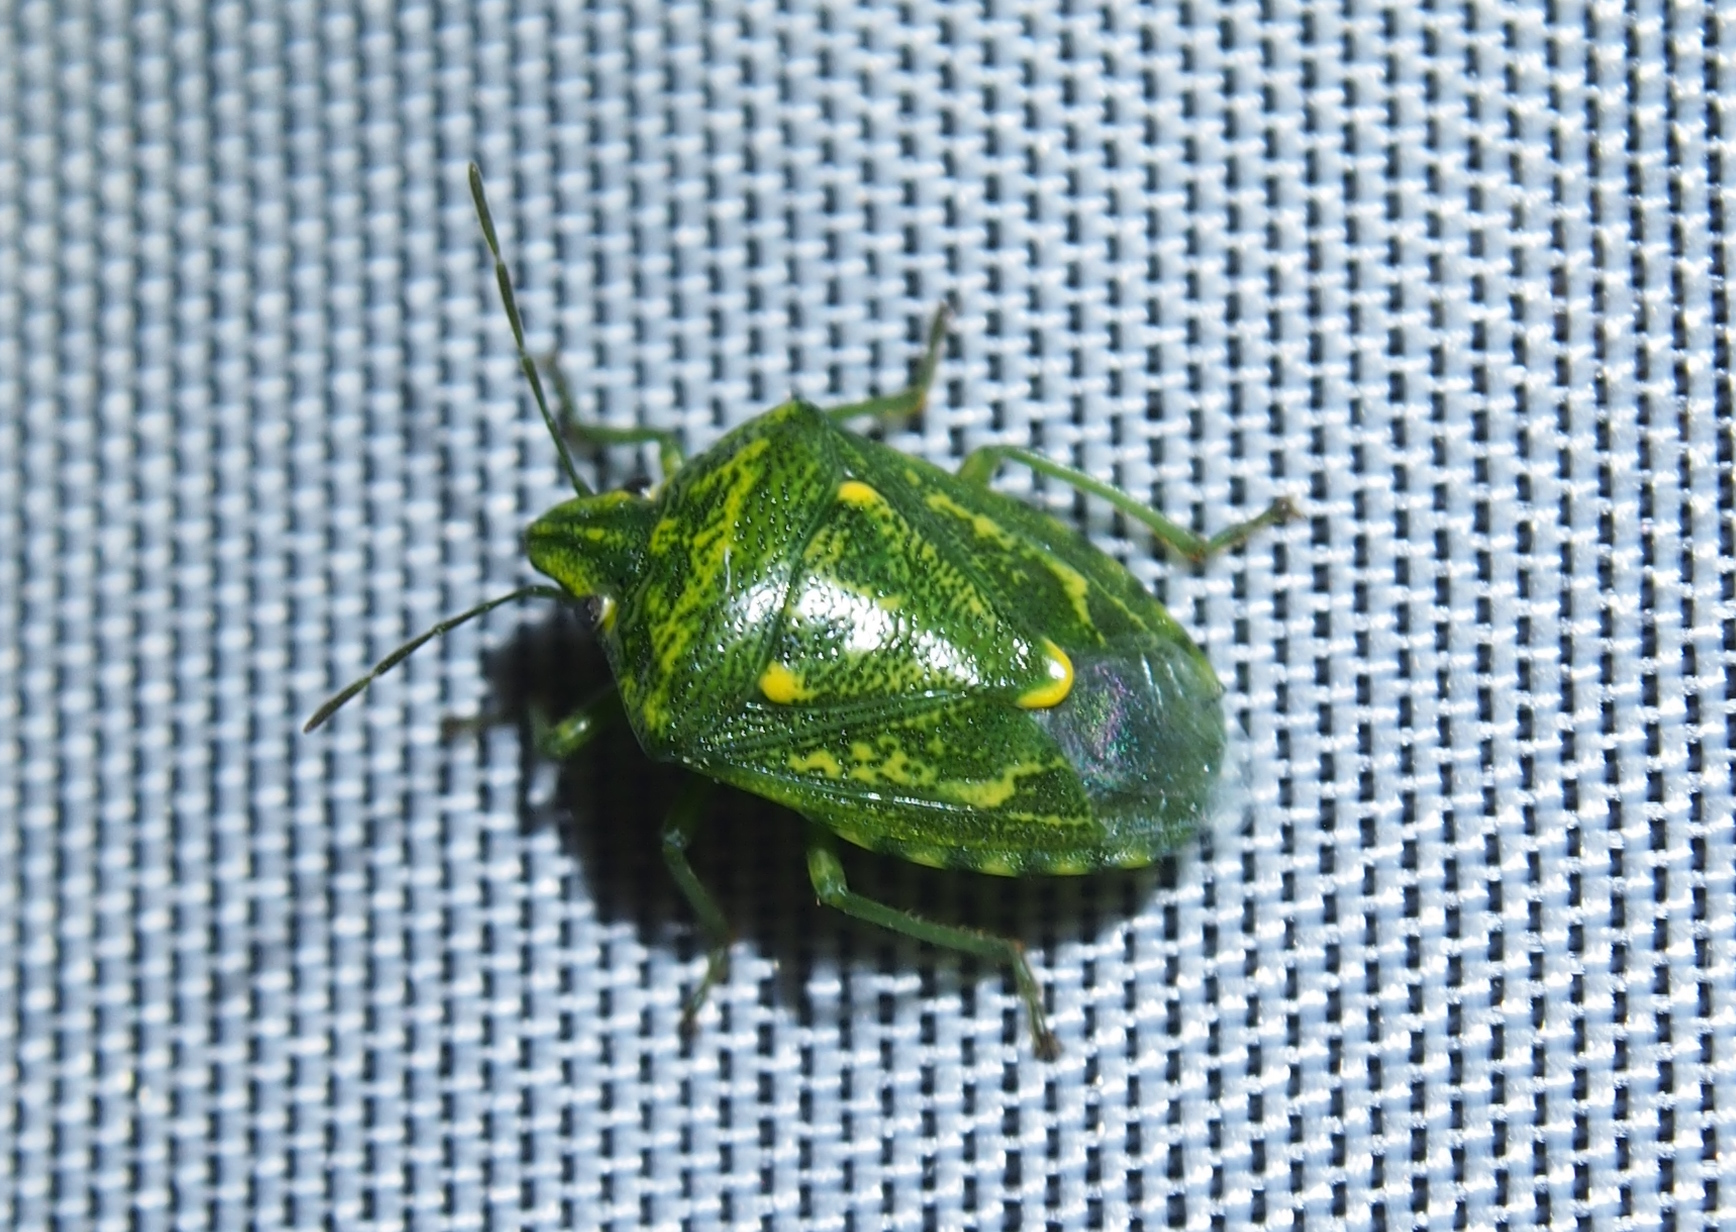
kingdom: Animalia
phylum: Arthropoda
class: Insecta
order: Hemiptera
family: Pentatomidae
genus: Banasa
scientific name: Banasa euchlora
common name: Cedar berry bug
